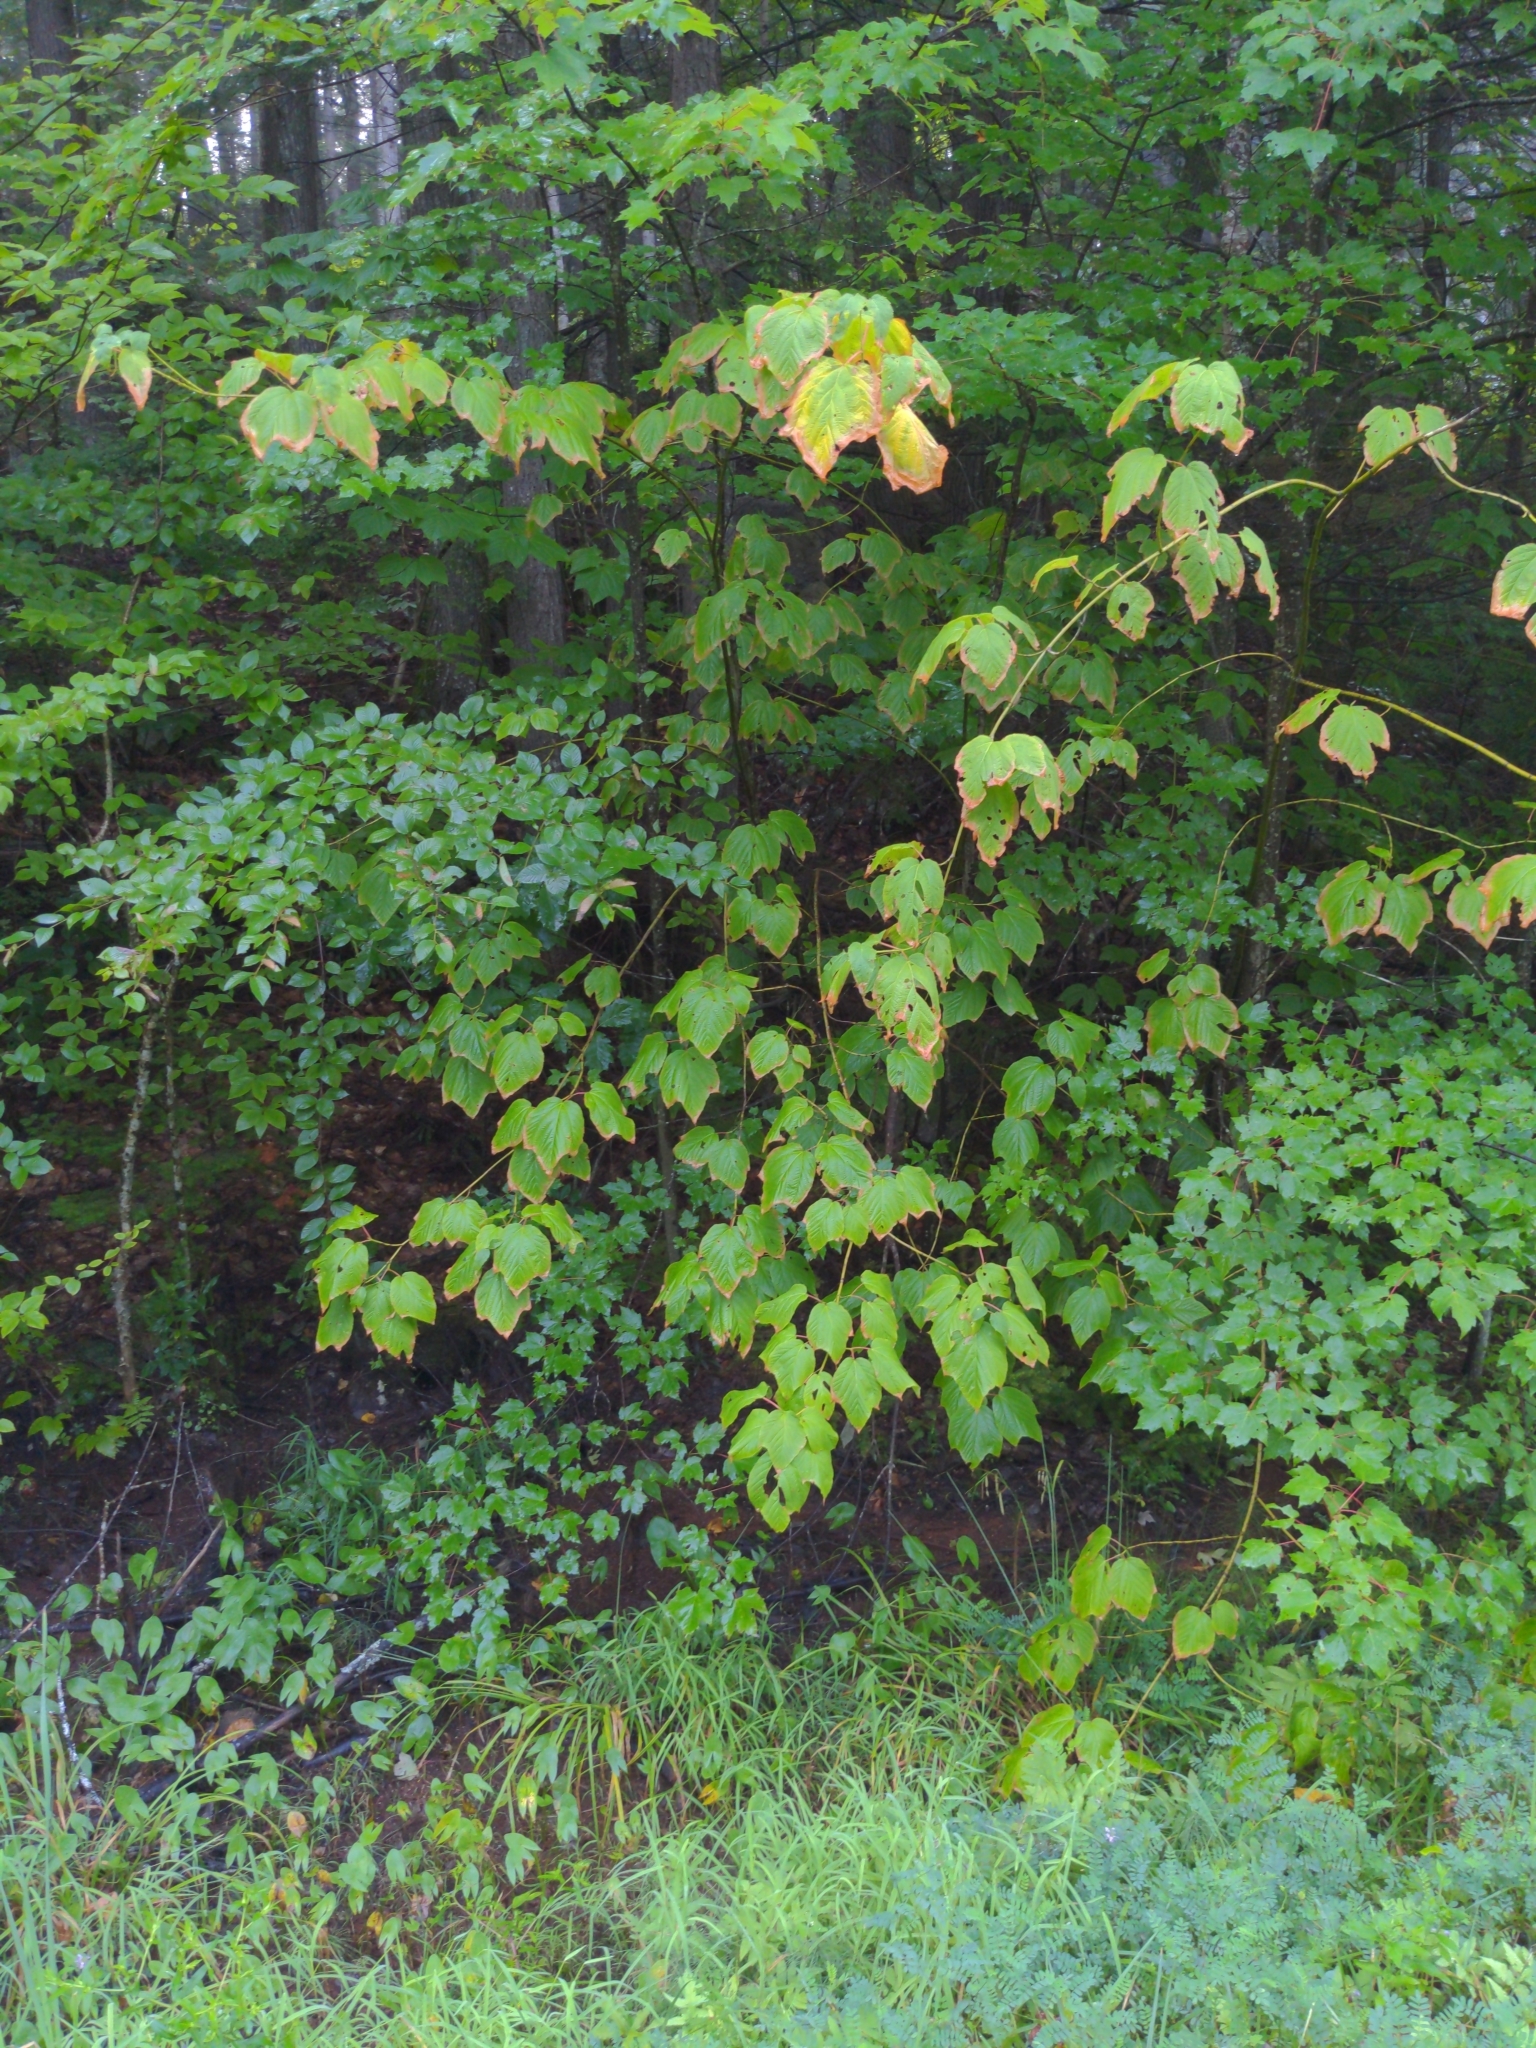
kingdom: Plantae
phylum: Tracheophyta
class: Magnoliopsida
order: Sapindales
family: Sapindaceae
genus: Acer
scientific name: Acer pensylvanicum
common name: Moosewood
